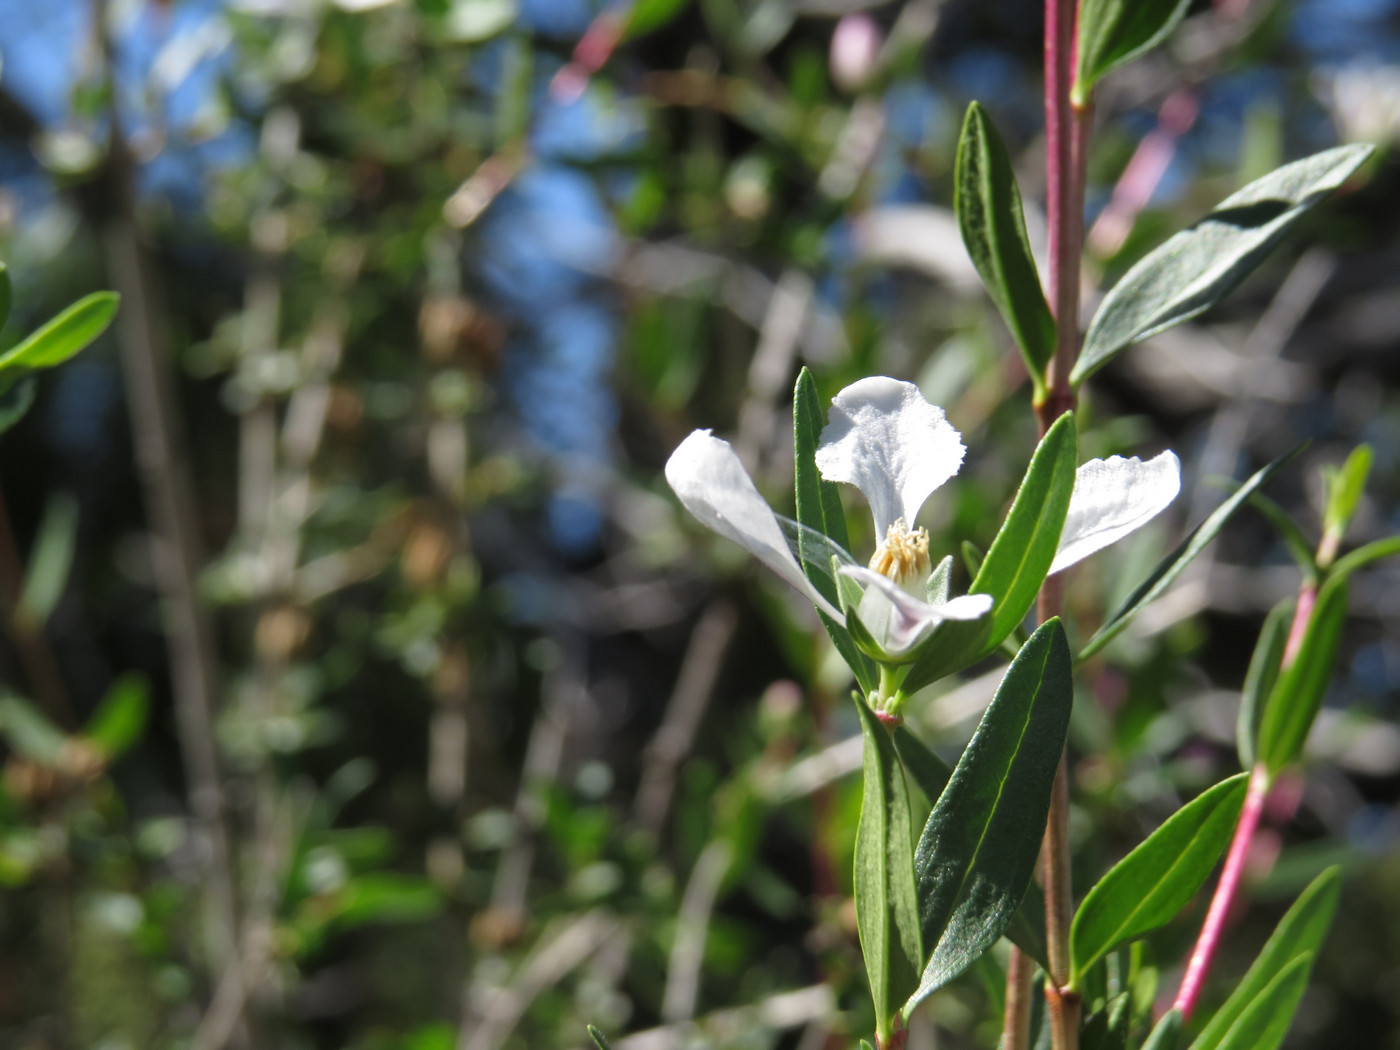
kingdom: Plantae
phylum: Tracheophyta
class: Magnoliopsida
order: Cornales
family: Hydrangeaceae
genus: Fendlera
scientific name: Fendlera rupicola
